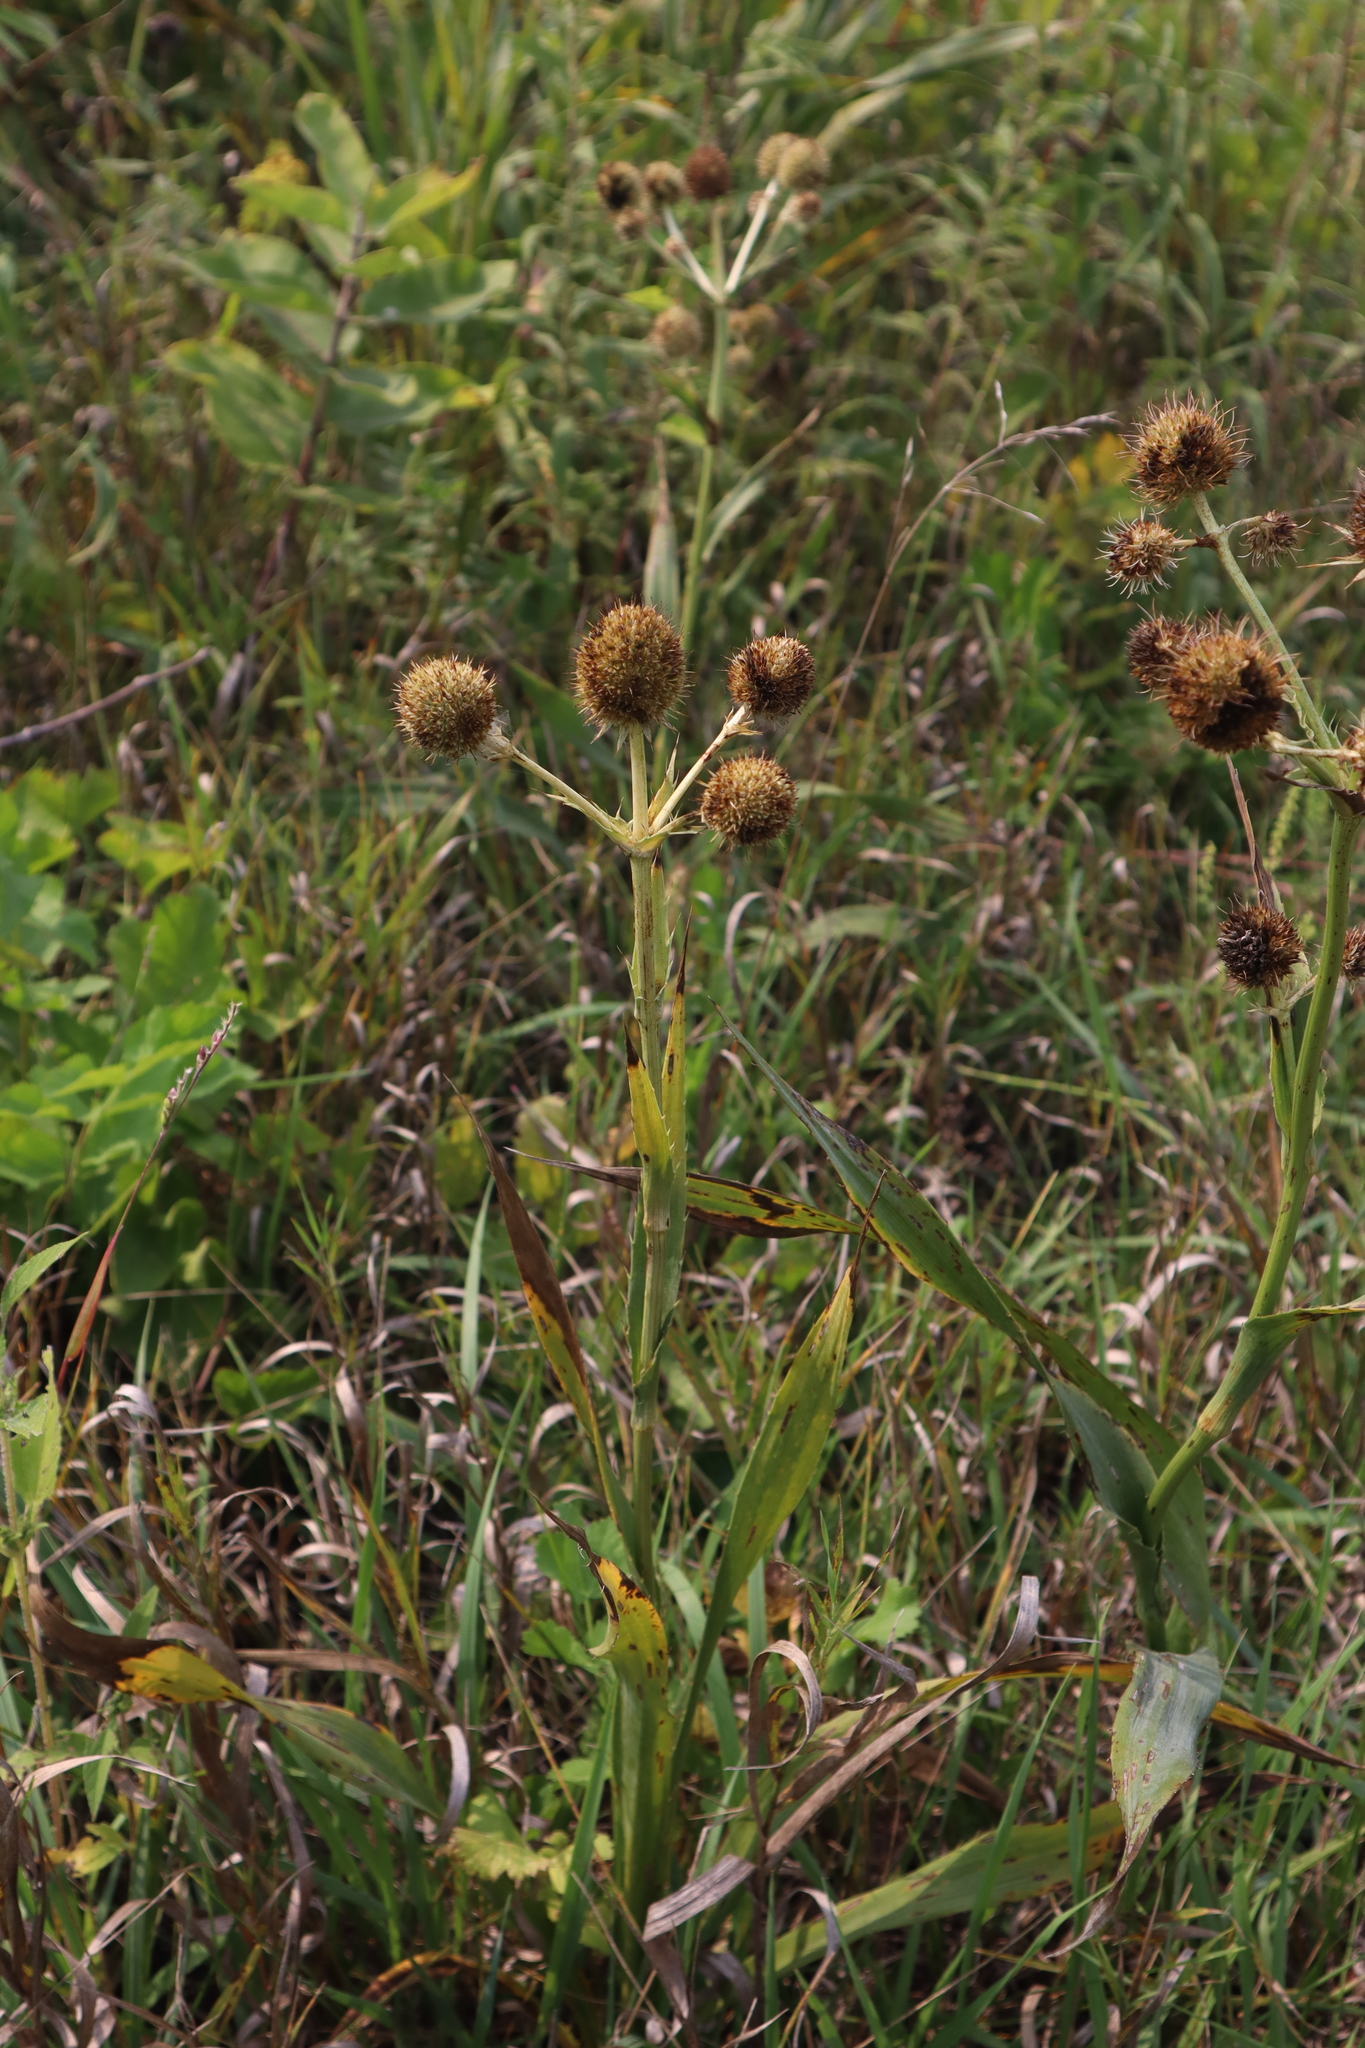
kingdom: Plantae
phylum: Tracheophyta
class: Magnoliopsida
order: Apiales
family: Apiaceae
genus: Eryngium
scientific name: Eryngium yuccifolium
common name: Button eryngo
